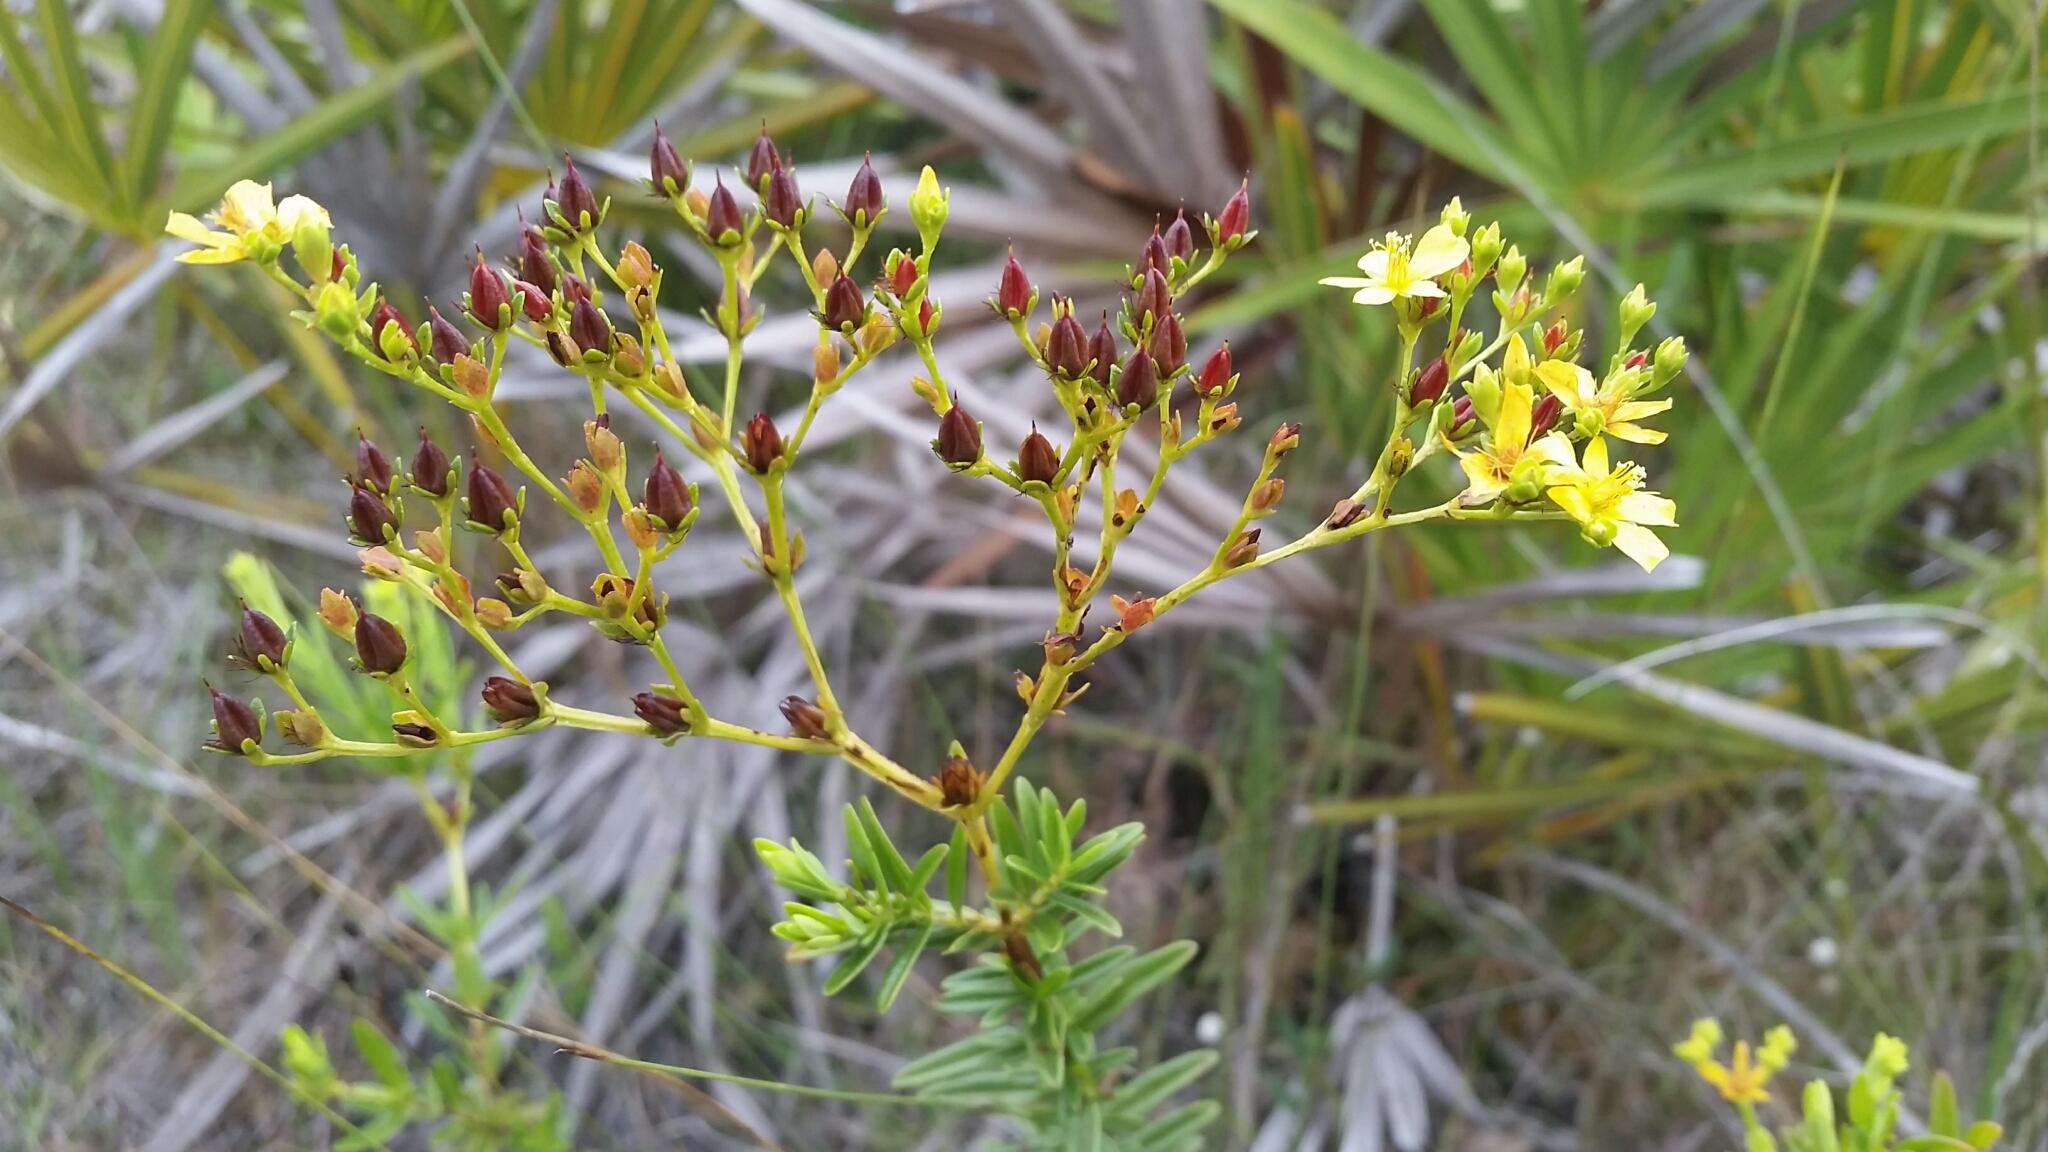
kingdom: Plantae
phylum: Tracheophyta
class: Magnoliopsida
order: Malpighiales
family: Hypericaceae
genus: Hypericum
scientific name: Hypericum cistifolium
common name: Round-pod st. john's-wort
